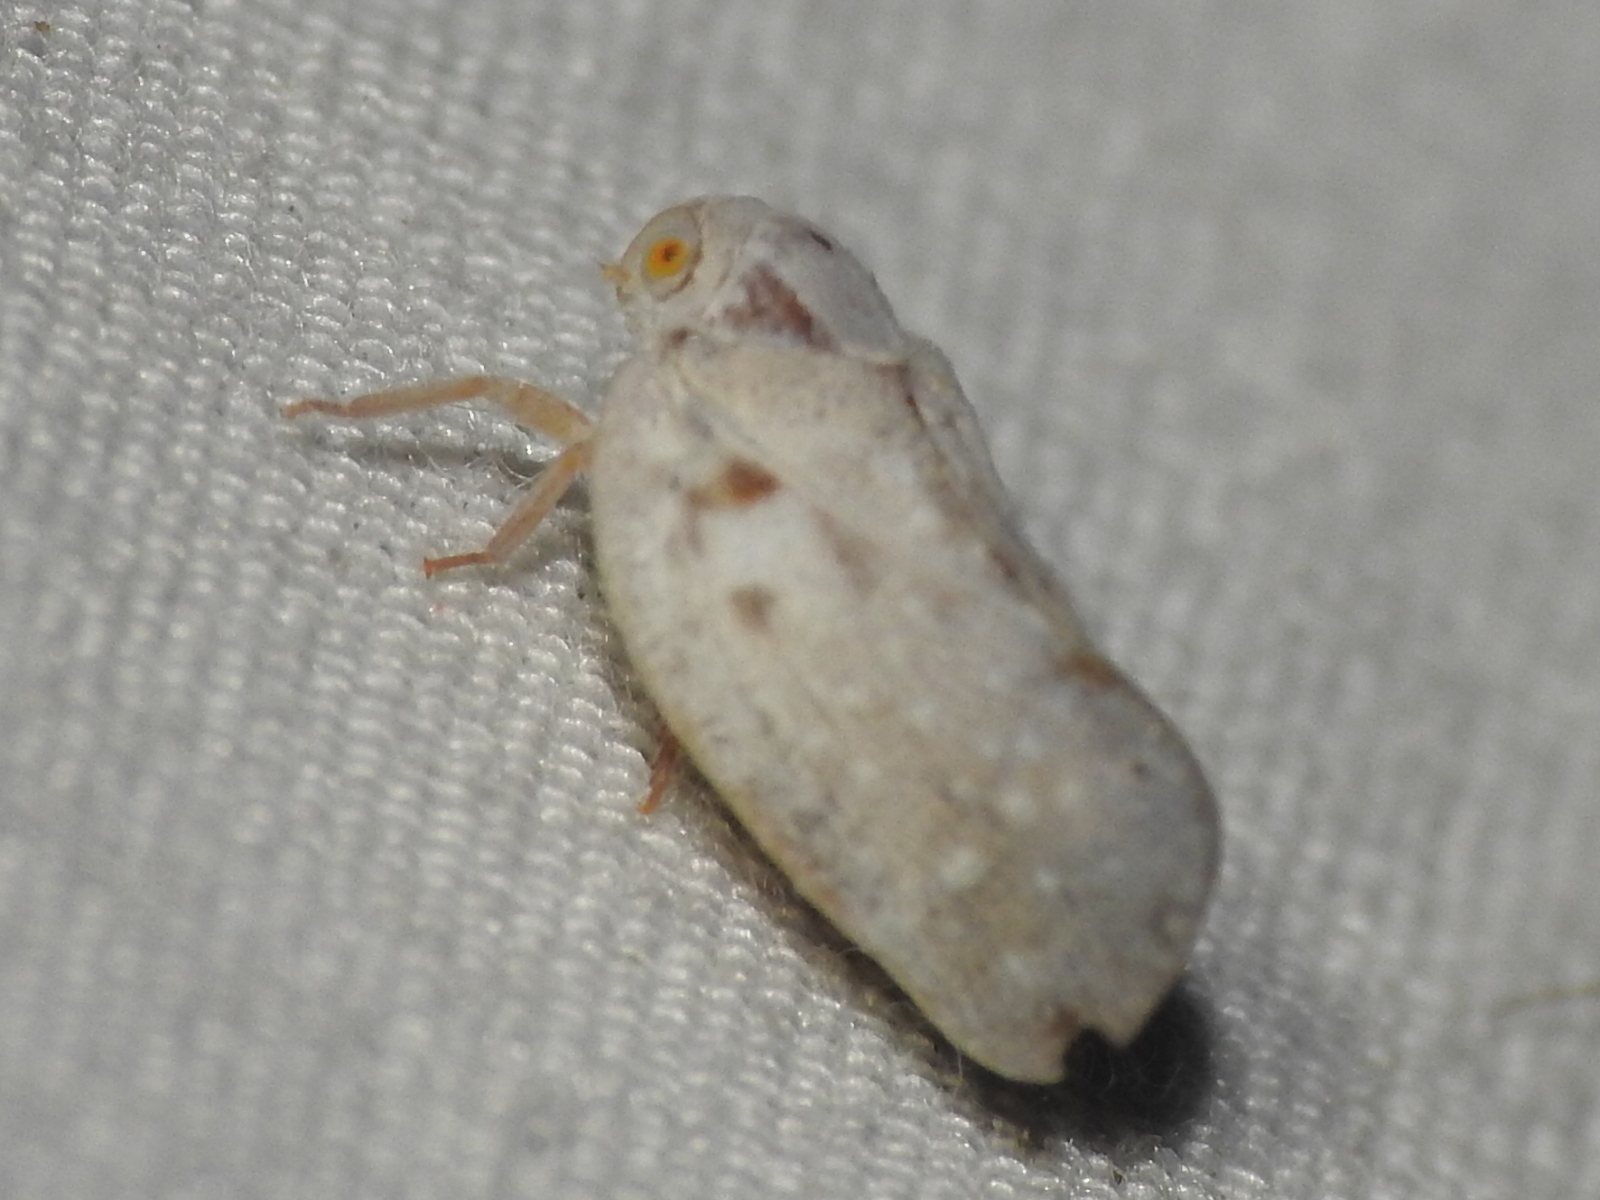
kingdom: Animalia
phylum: Arthropoda
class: Insecta
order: Hemiptera
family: Flatidae
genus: Metcalfa
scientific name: Metcalfa pruinosa
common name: Citrus flatid planthopper
